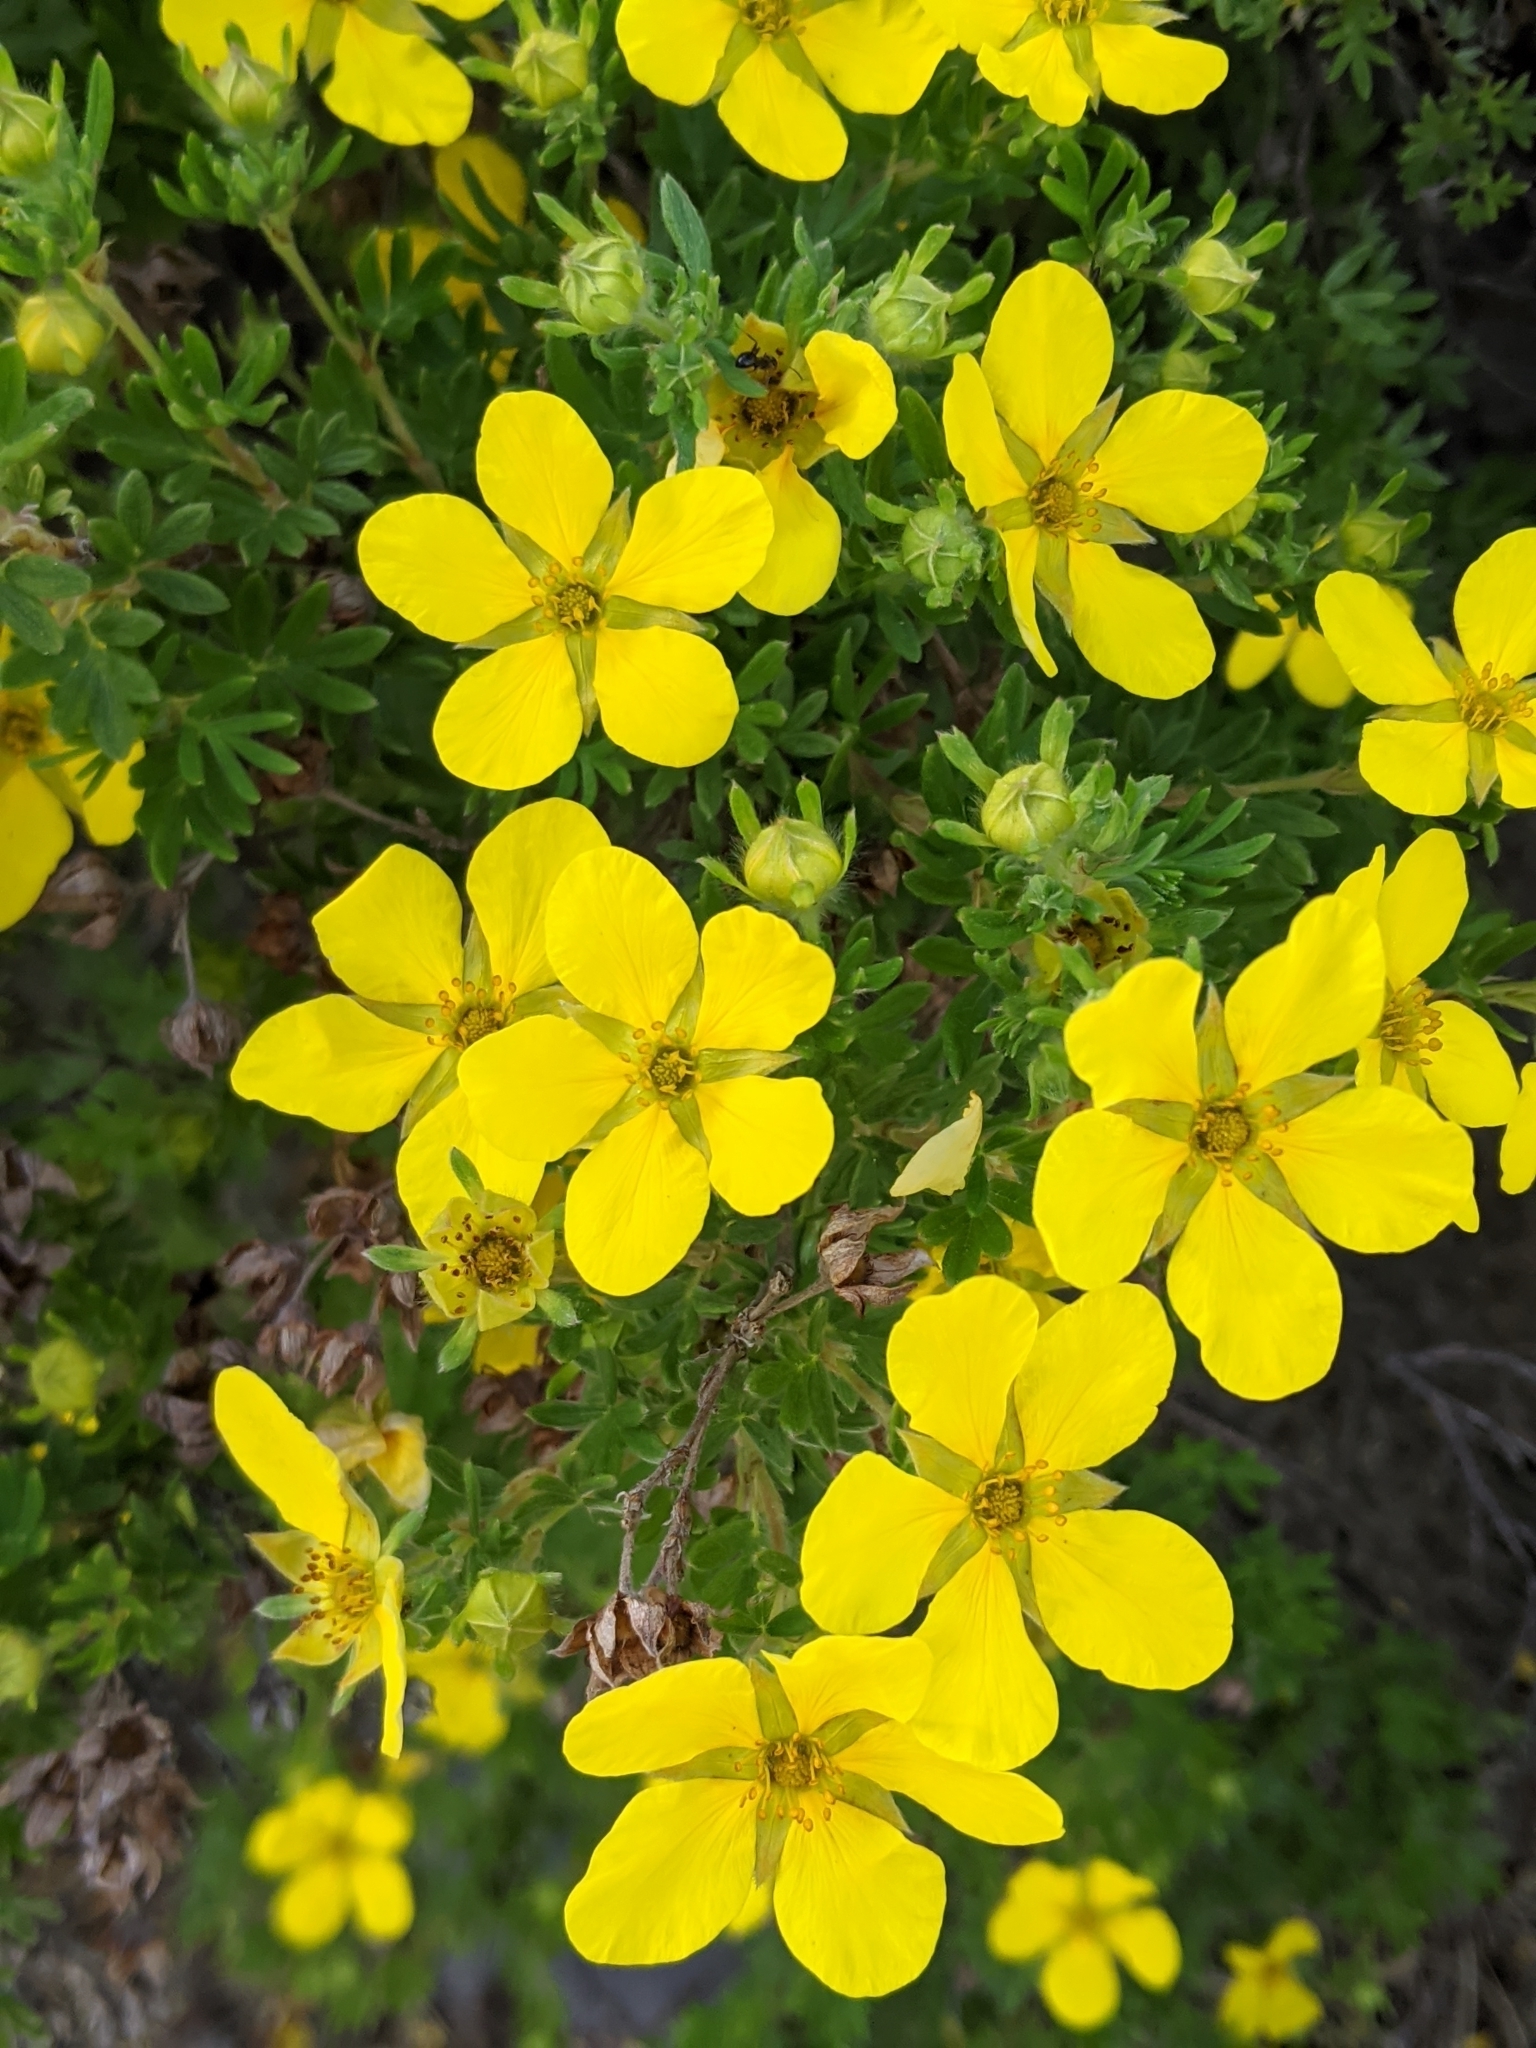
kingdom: Plantae
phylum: Tracheophyta
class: Magnoliopsida
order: Rosales
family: Rosaceae
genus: Dasiphora
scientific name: Dasiphora fruticosa
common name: Shrubby cinquefoil
